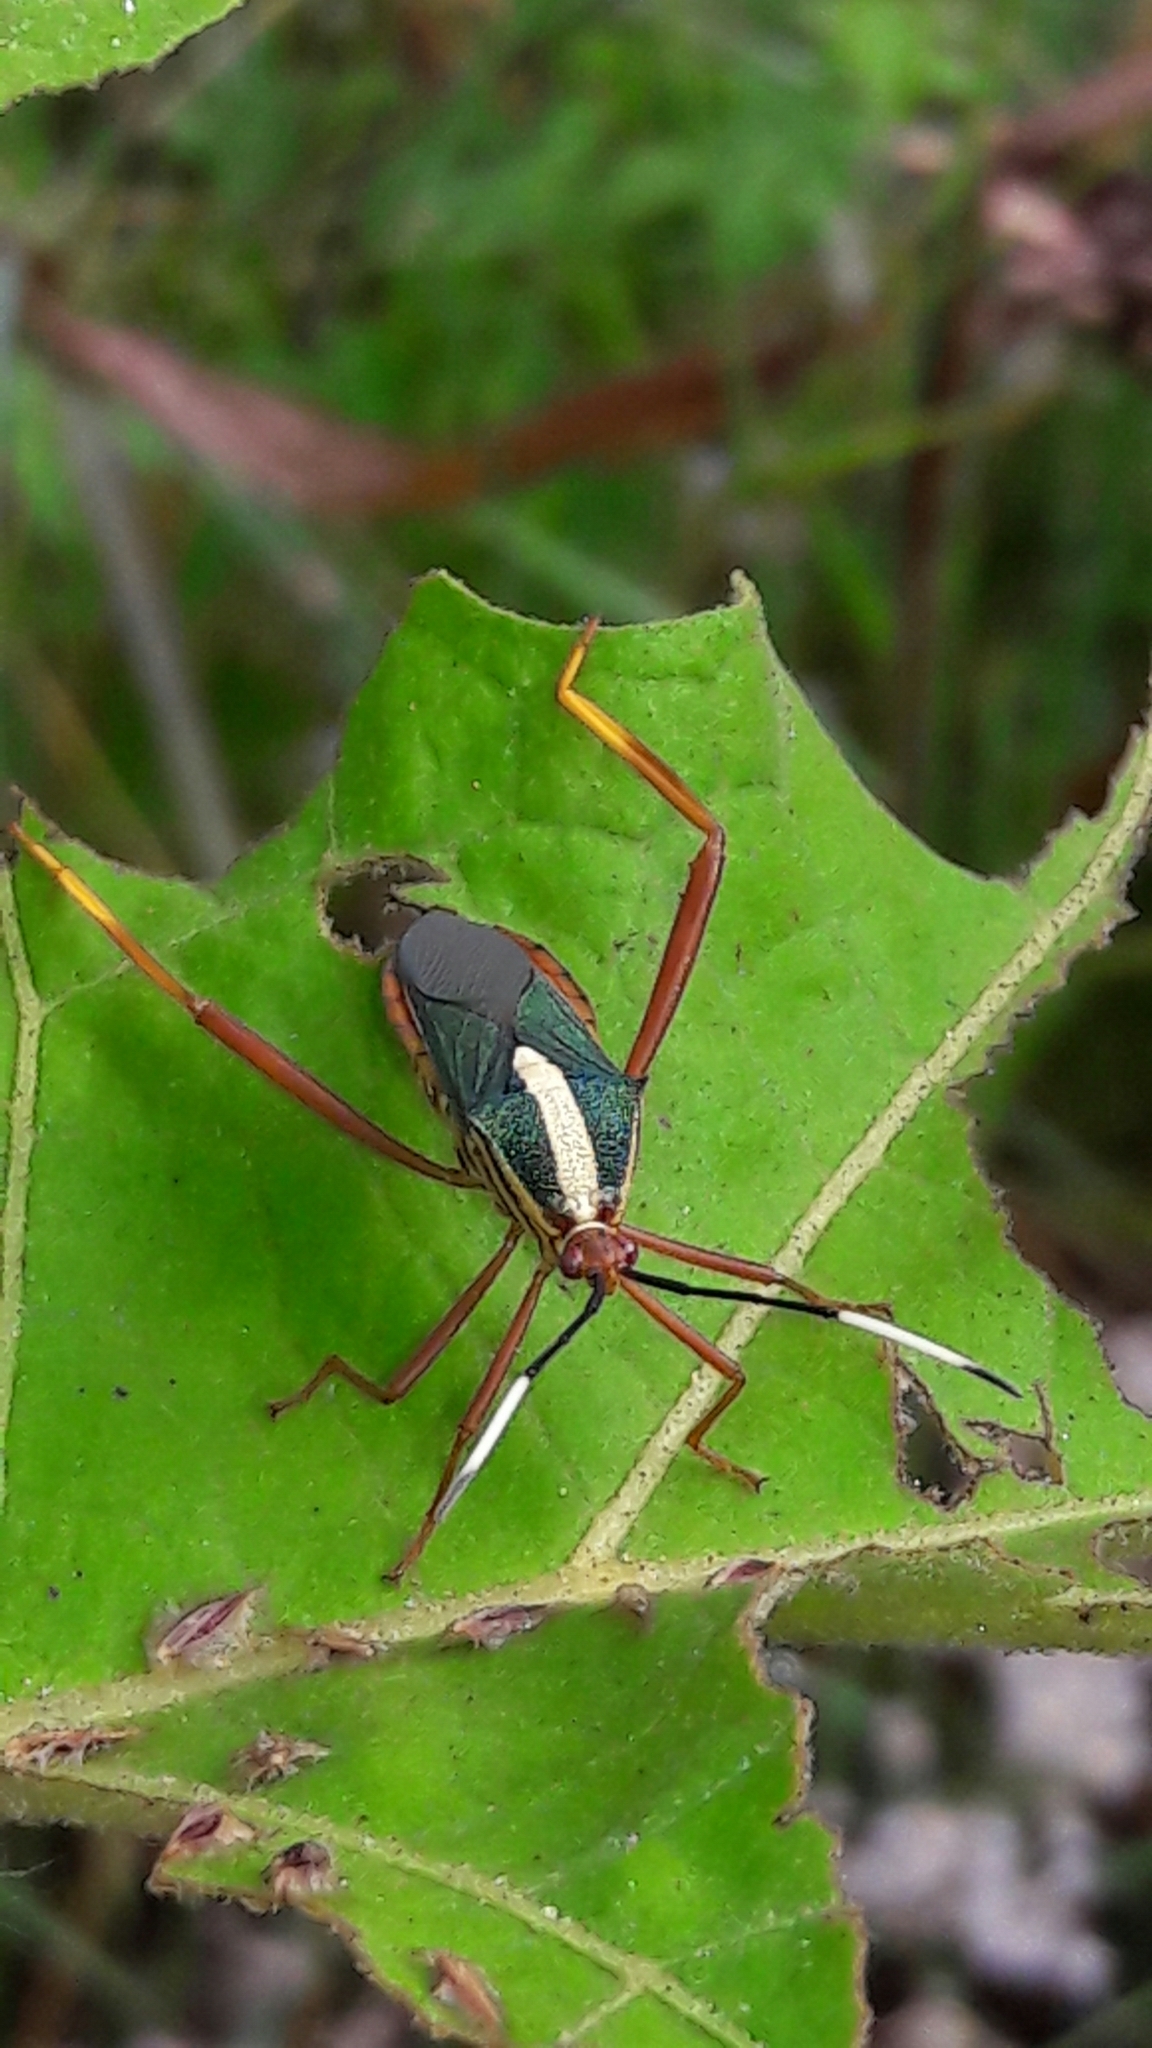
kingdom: Animalia
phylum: Arthropoda
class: Insecta
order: Hemiptera
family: Coreidae
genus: Lucullia
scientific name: Lucullia flavovittata
